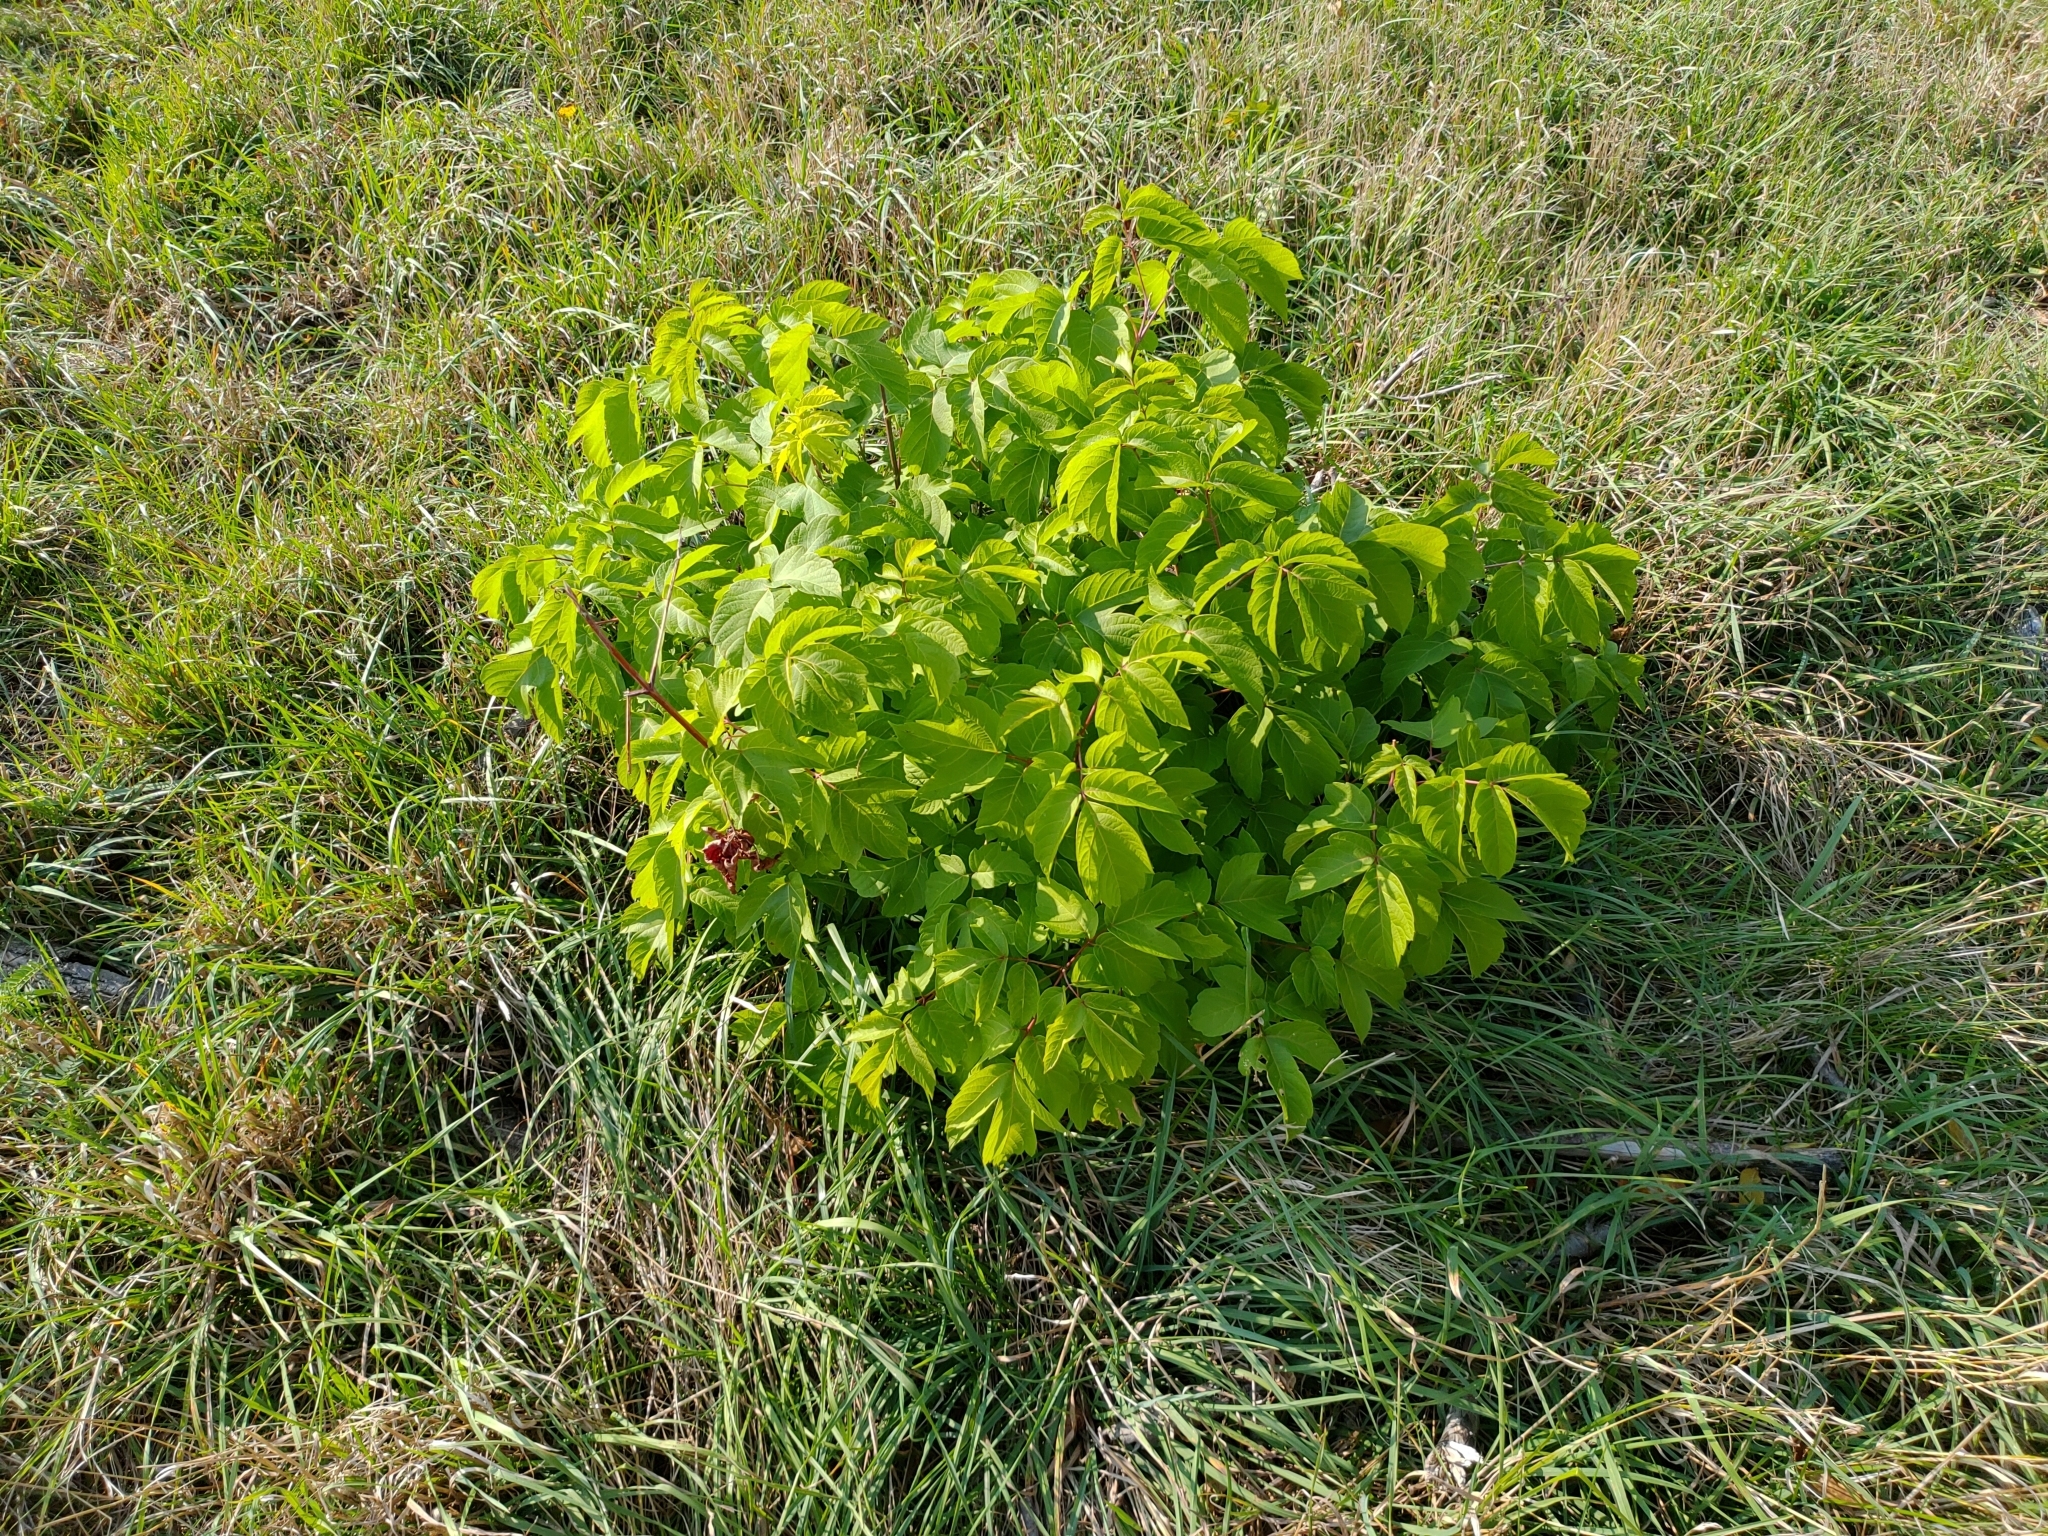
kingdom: Plantae
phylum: Tracheophyta
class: Magnoliopsida
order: Sapindales
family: Sapindaceae
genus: Acer
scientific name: Acer negundo
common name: Ashleaf maple
